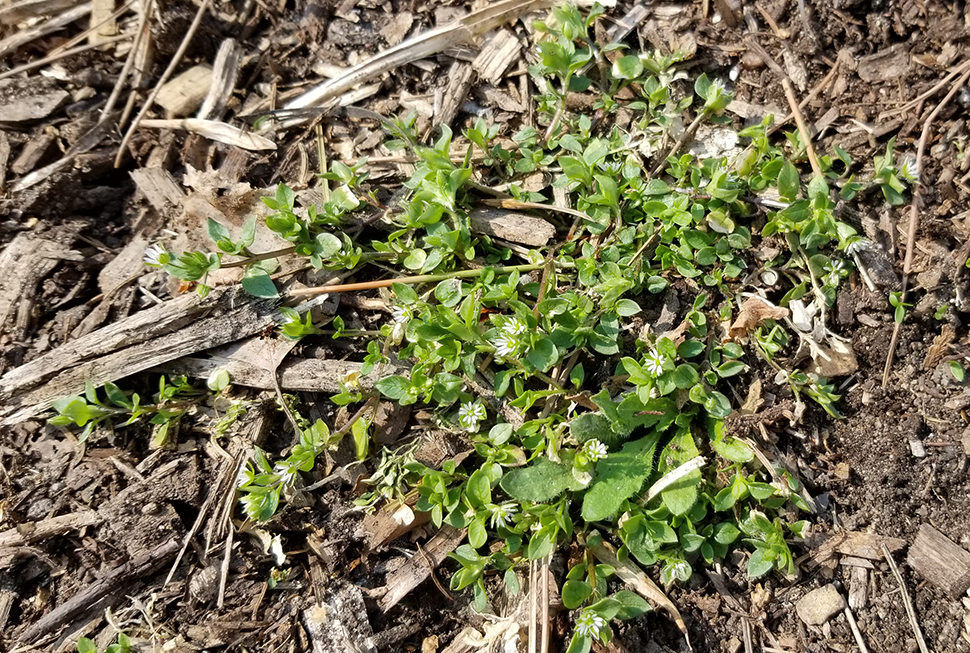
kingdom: Plantae
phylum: Tracheophyta
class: Magnoliopsida
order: Caryophyllales
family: Caryophyllaceae
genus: Stellaria
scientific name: Stellaria media
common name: Common chickweed
